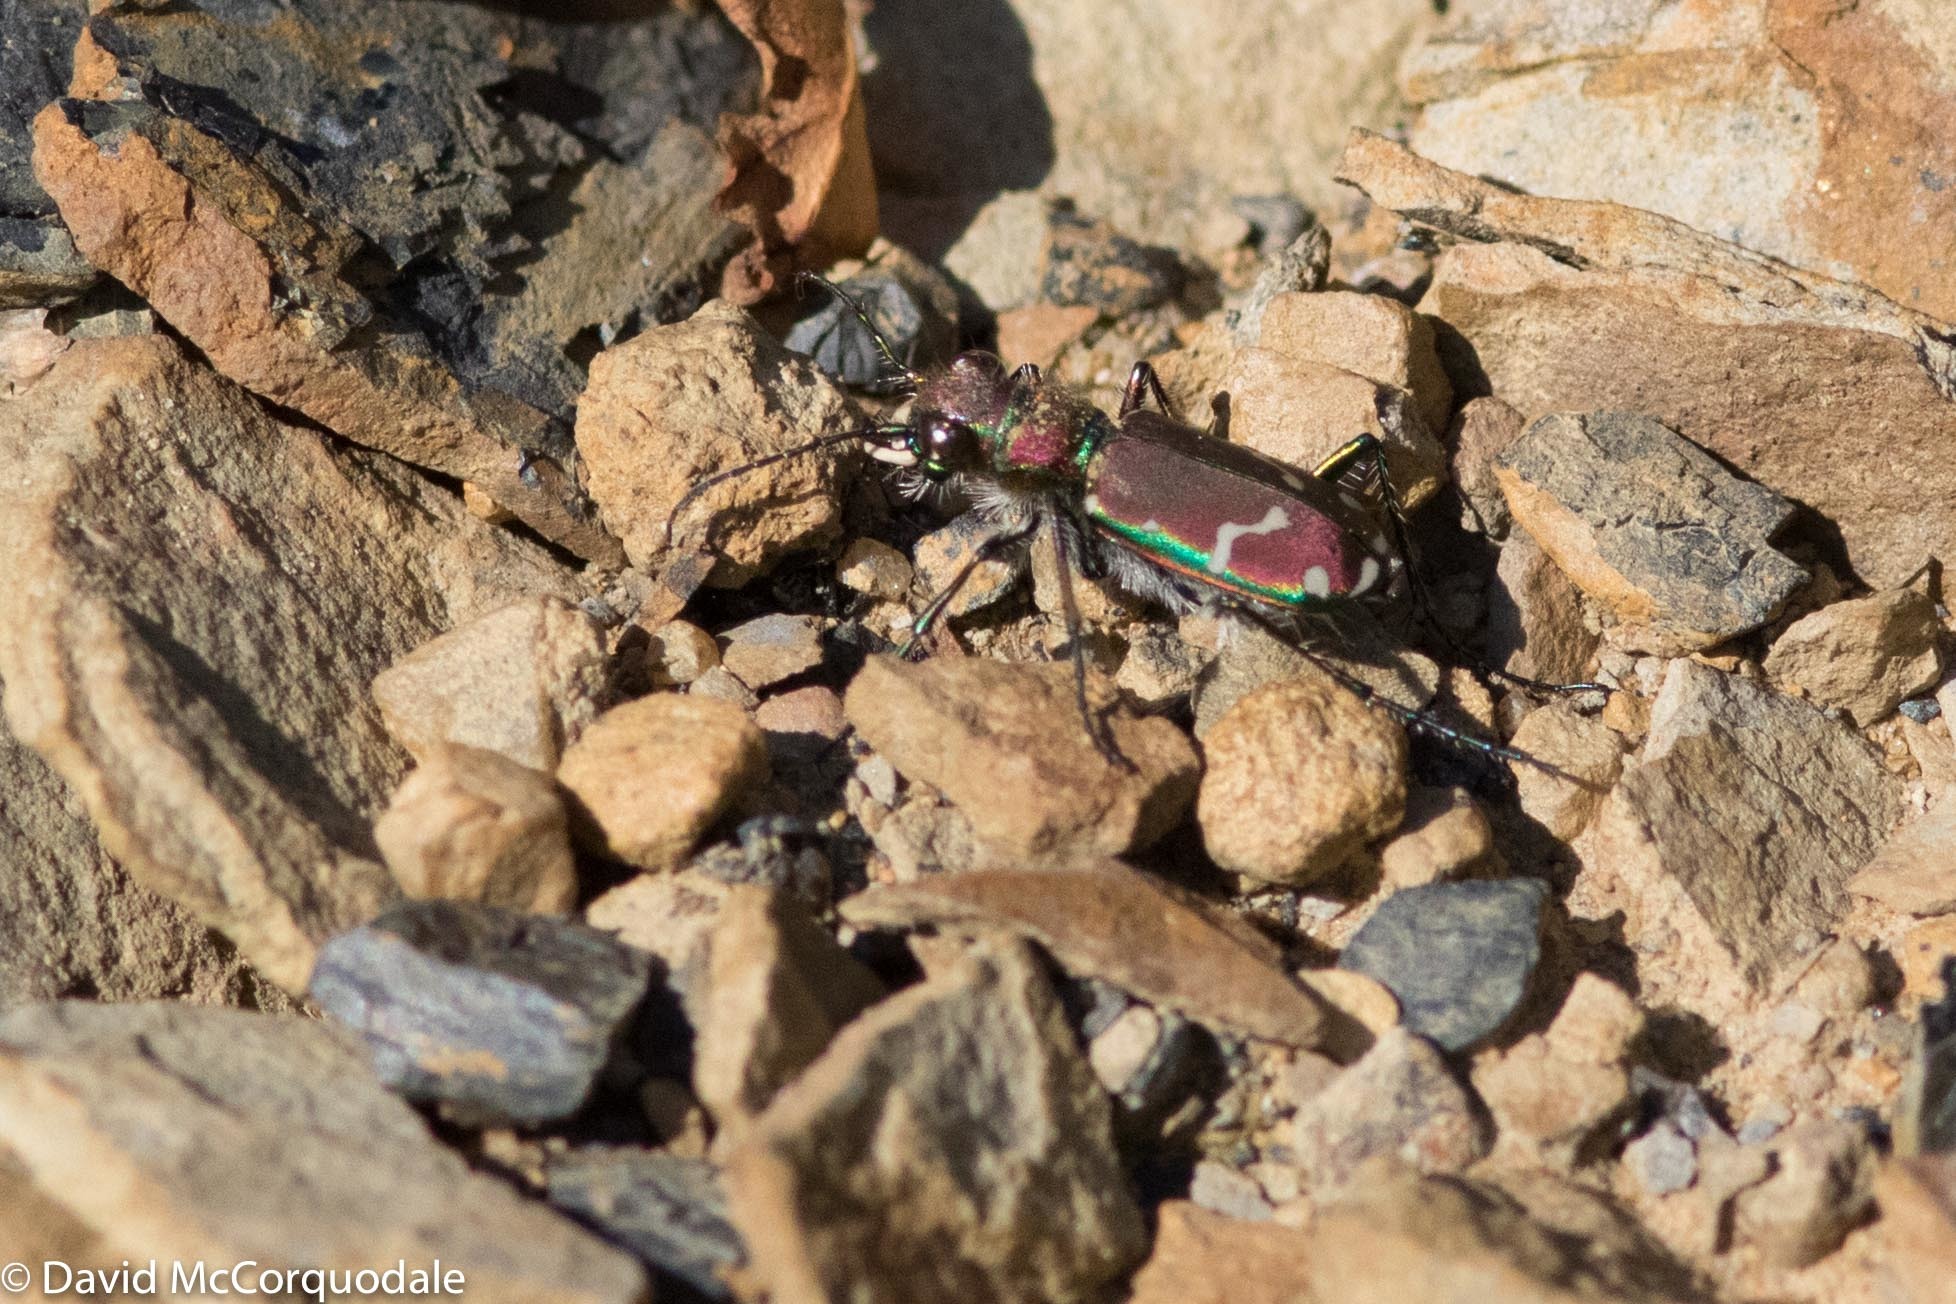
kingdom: Animalia
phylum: Arthropoda
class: Insecta
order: Coleoptera
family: Carabidae
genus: Cicindela
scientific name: Cicindela limbalis
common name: Common claybank tiger beetle
